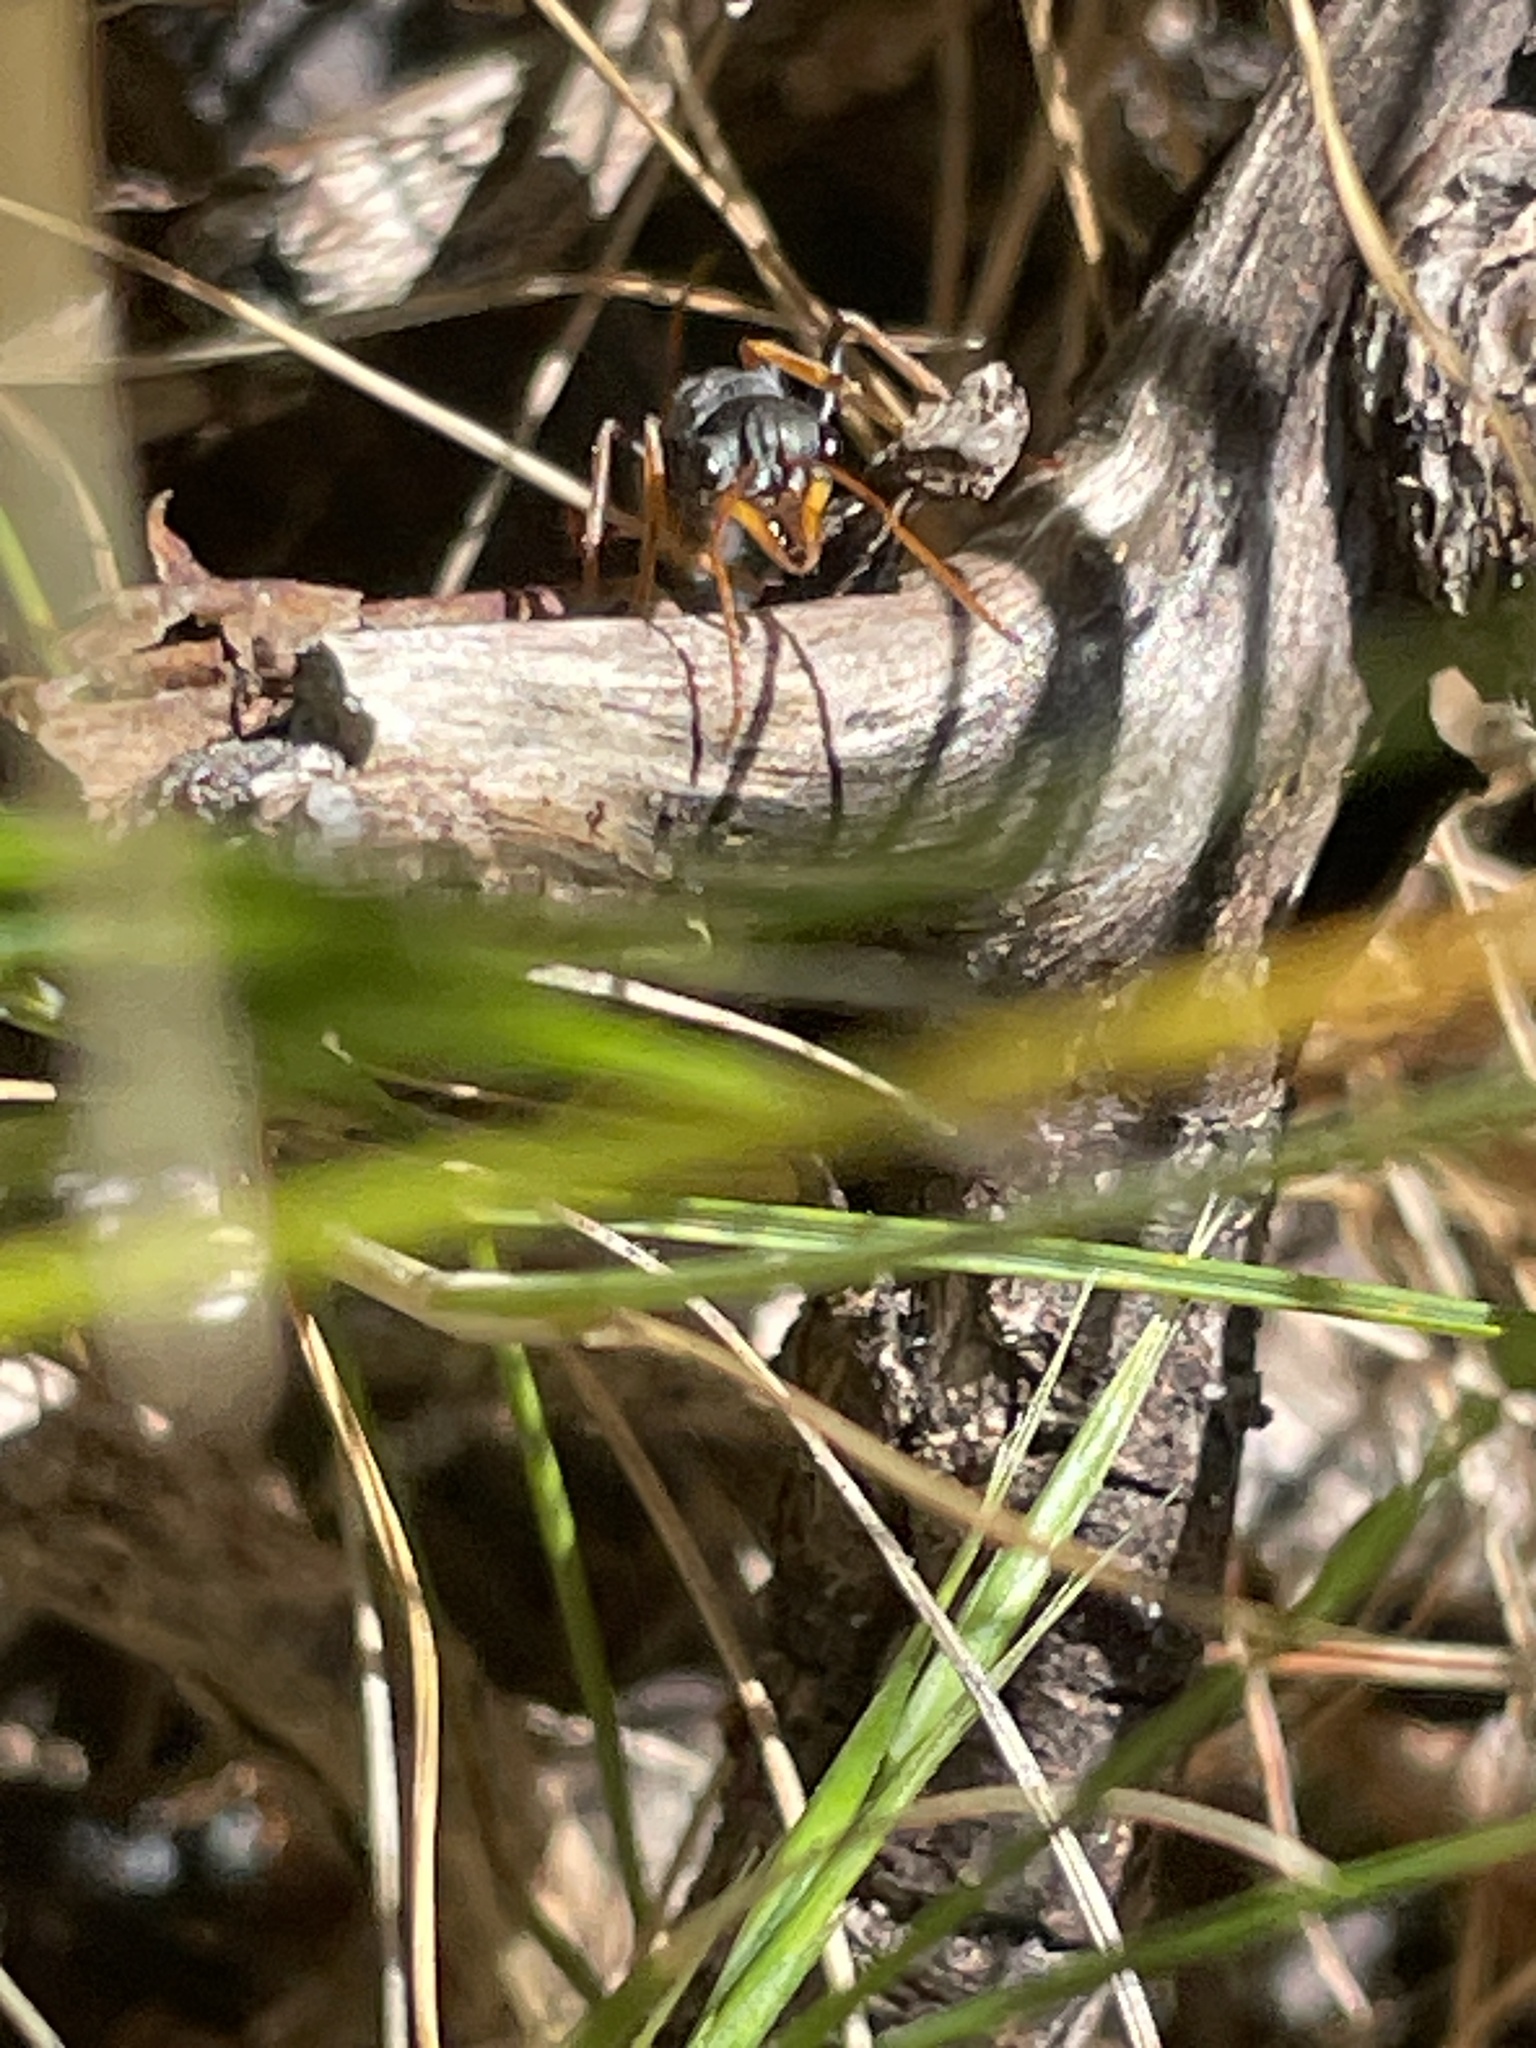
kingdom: Animalia
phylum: Arthropoda
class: Insecta
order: Hymenoptera
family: Formicidae
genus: Myrmecia
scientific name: Myrmecia pilosula
